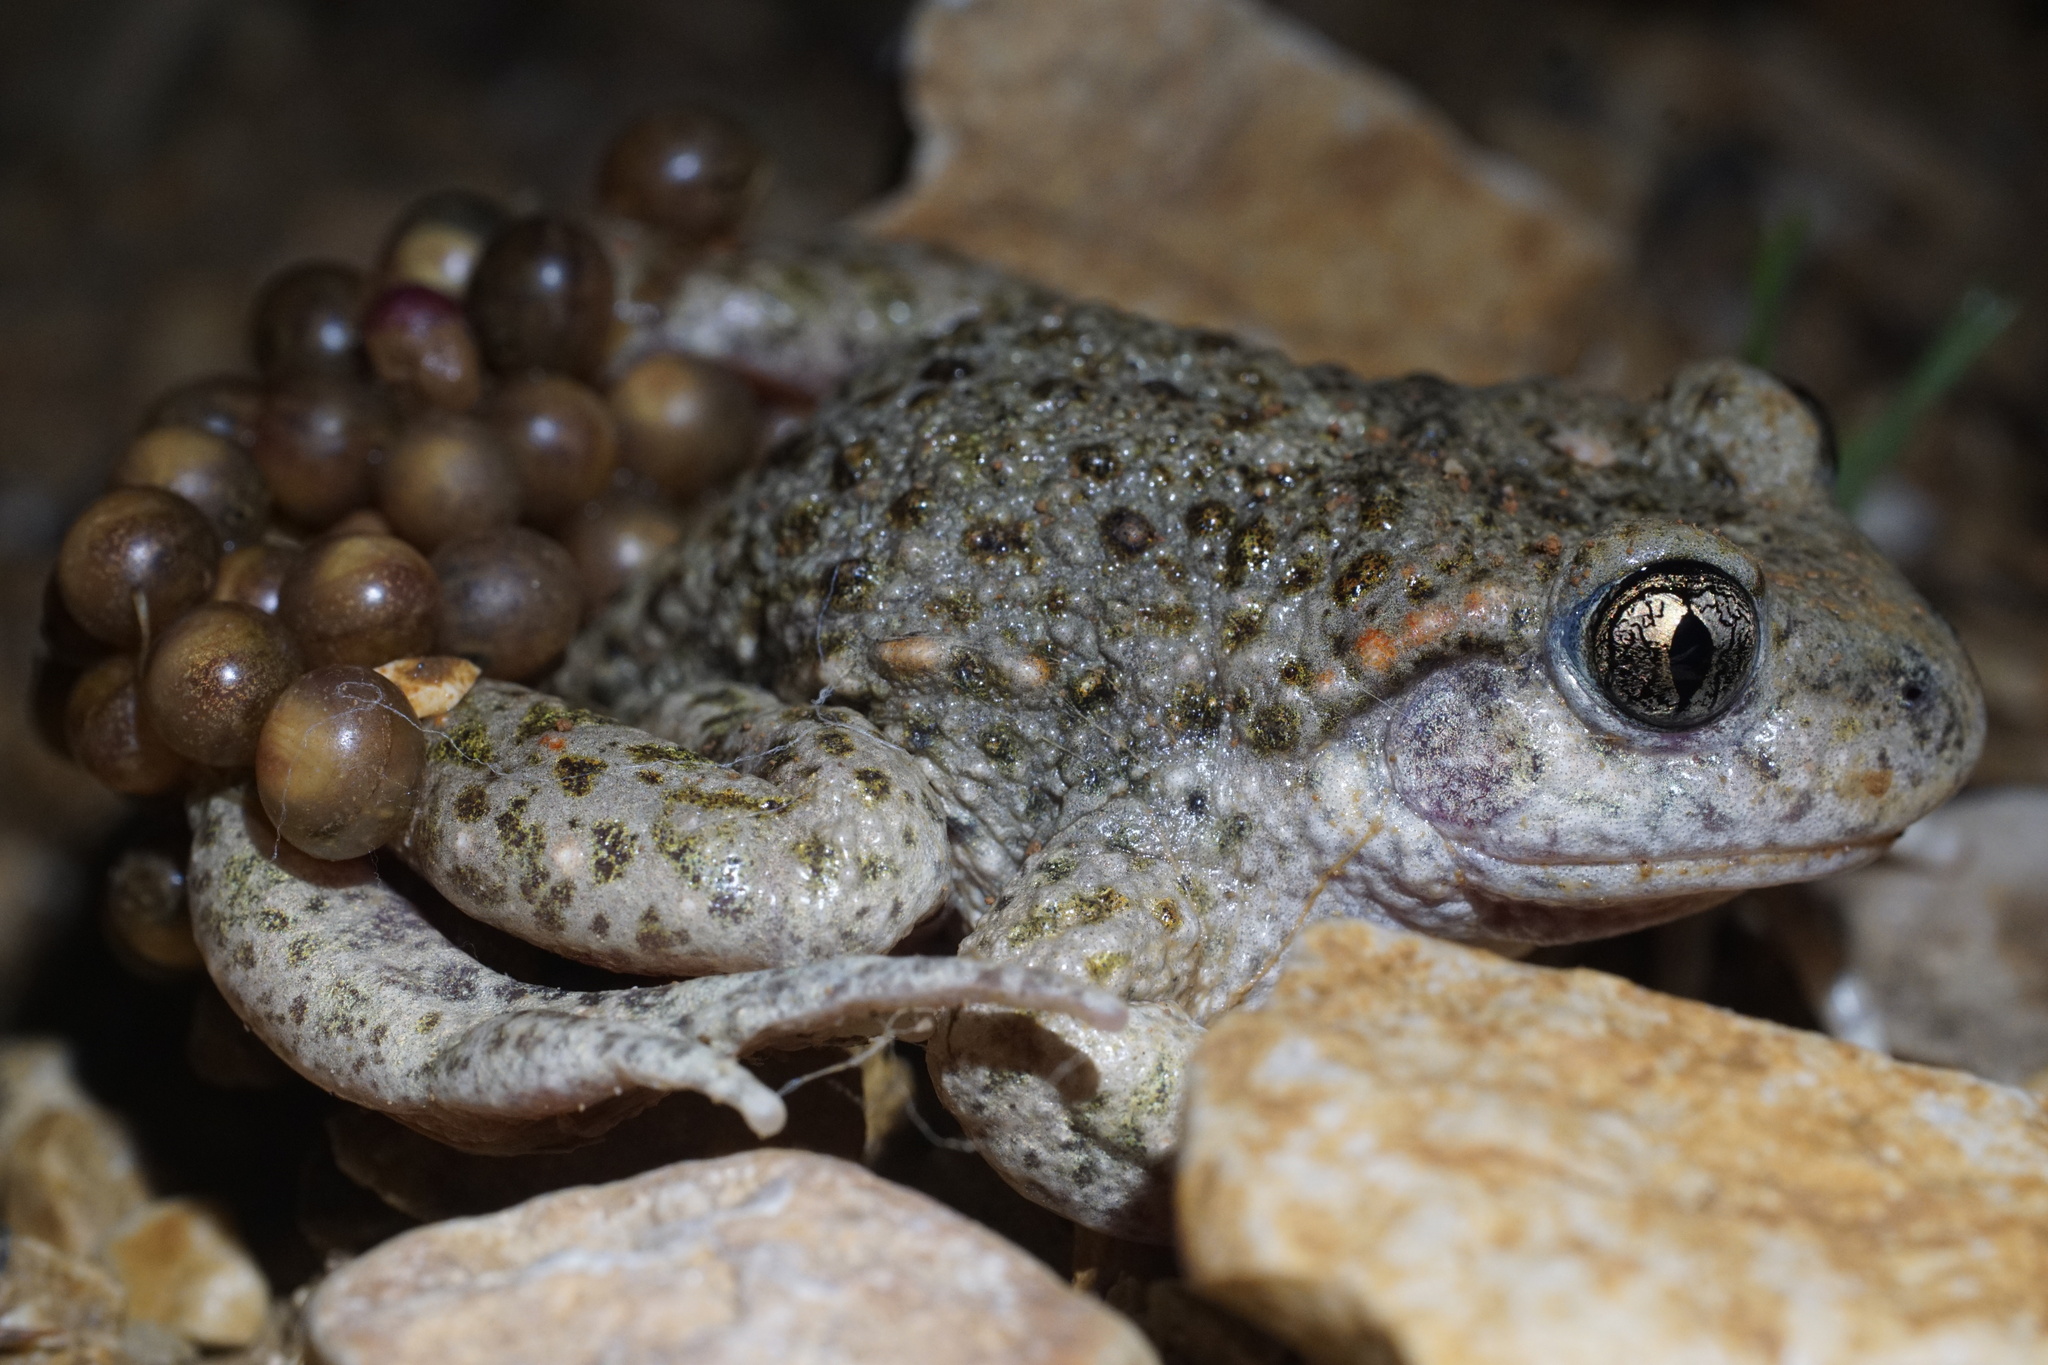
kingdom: Animalia
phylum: Chordata
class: Amphibia
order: Anura
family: Alytidae
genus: Alytes
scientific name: Alytes obstetricans
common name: Midwife toad
